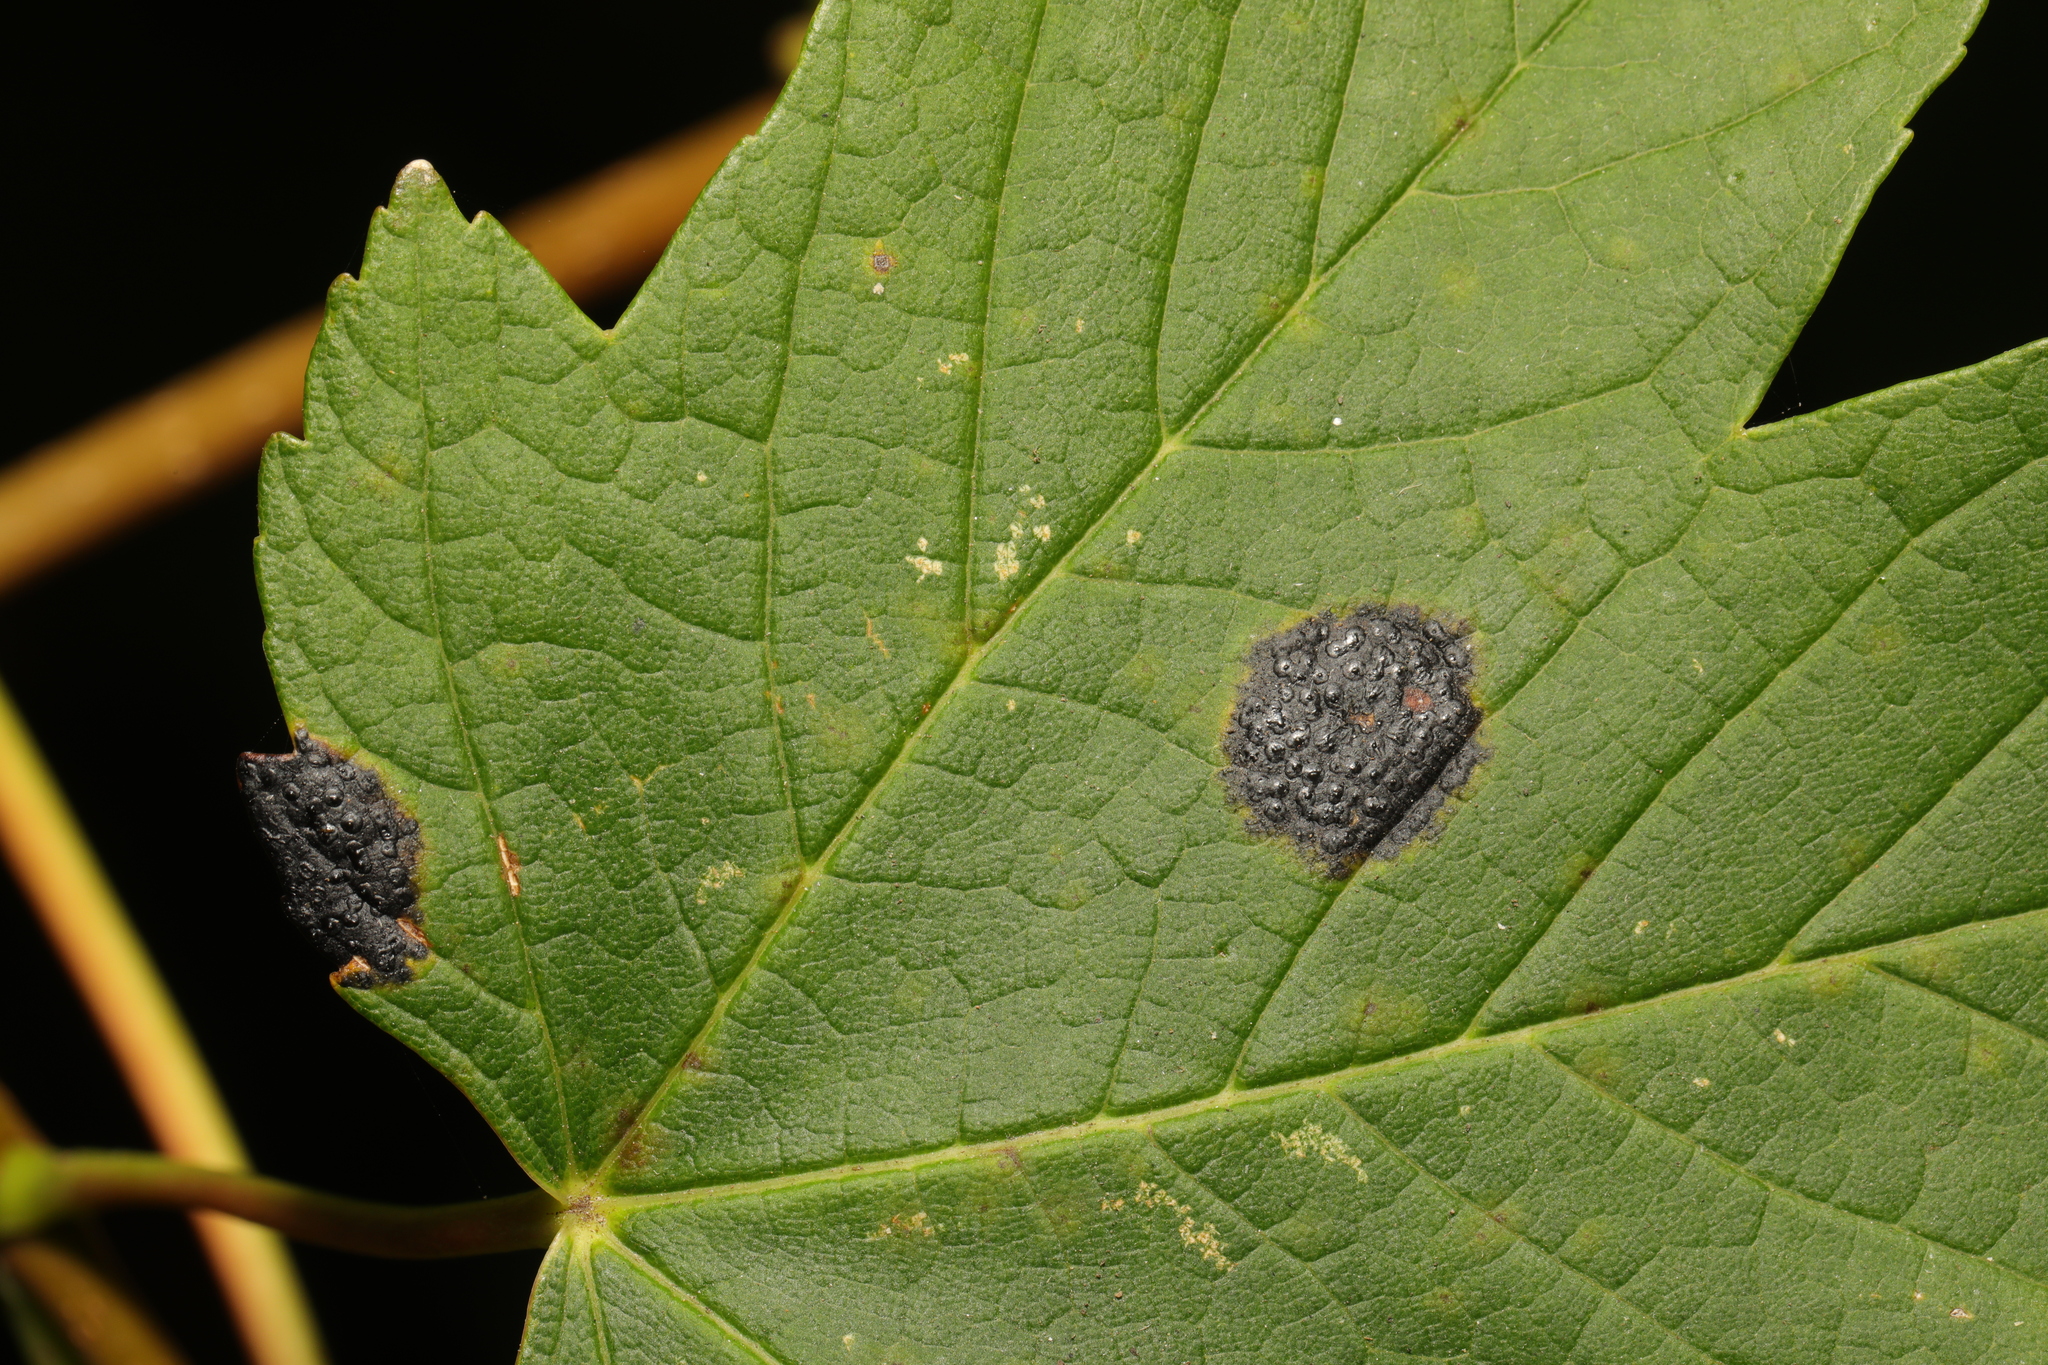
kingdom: Fungi
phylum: Ascomycota
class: Leotiomycetes
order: Rhytismatales
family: Rhytismataceae
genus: Rhytisma
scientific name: Rhytisma acerinum
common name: European tar spot
